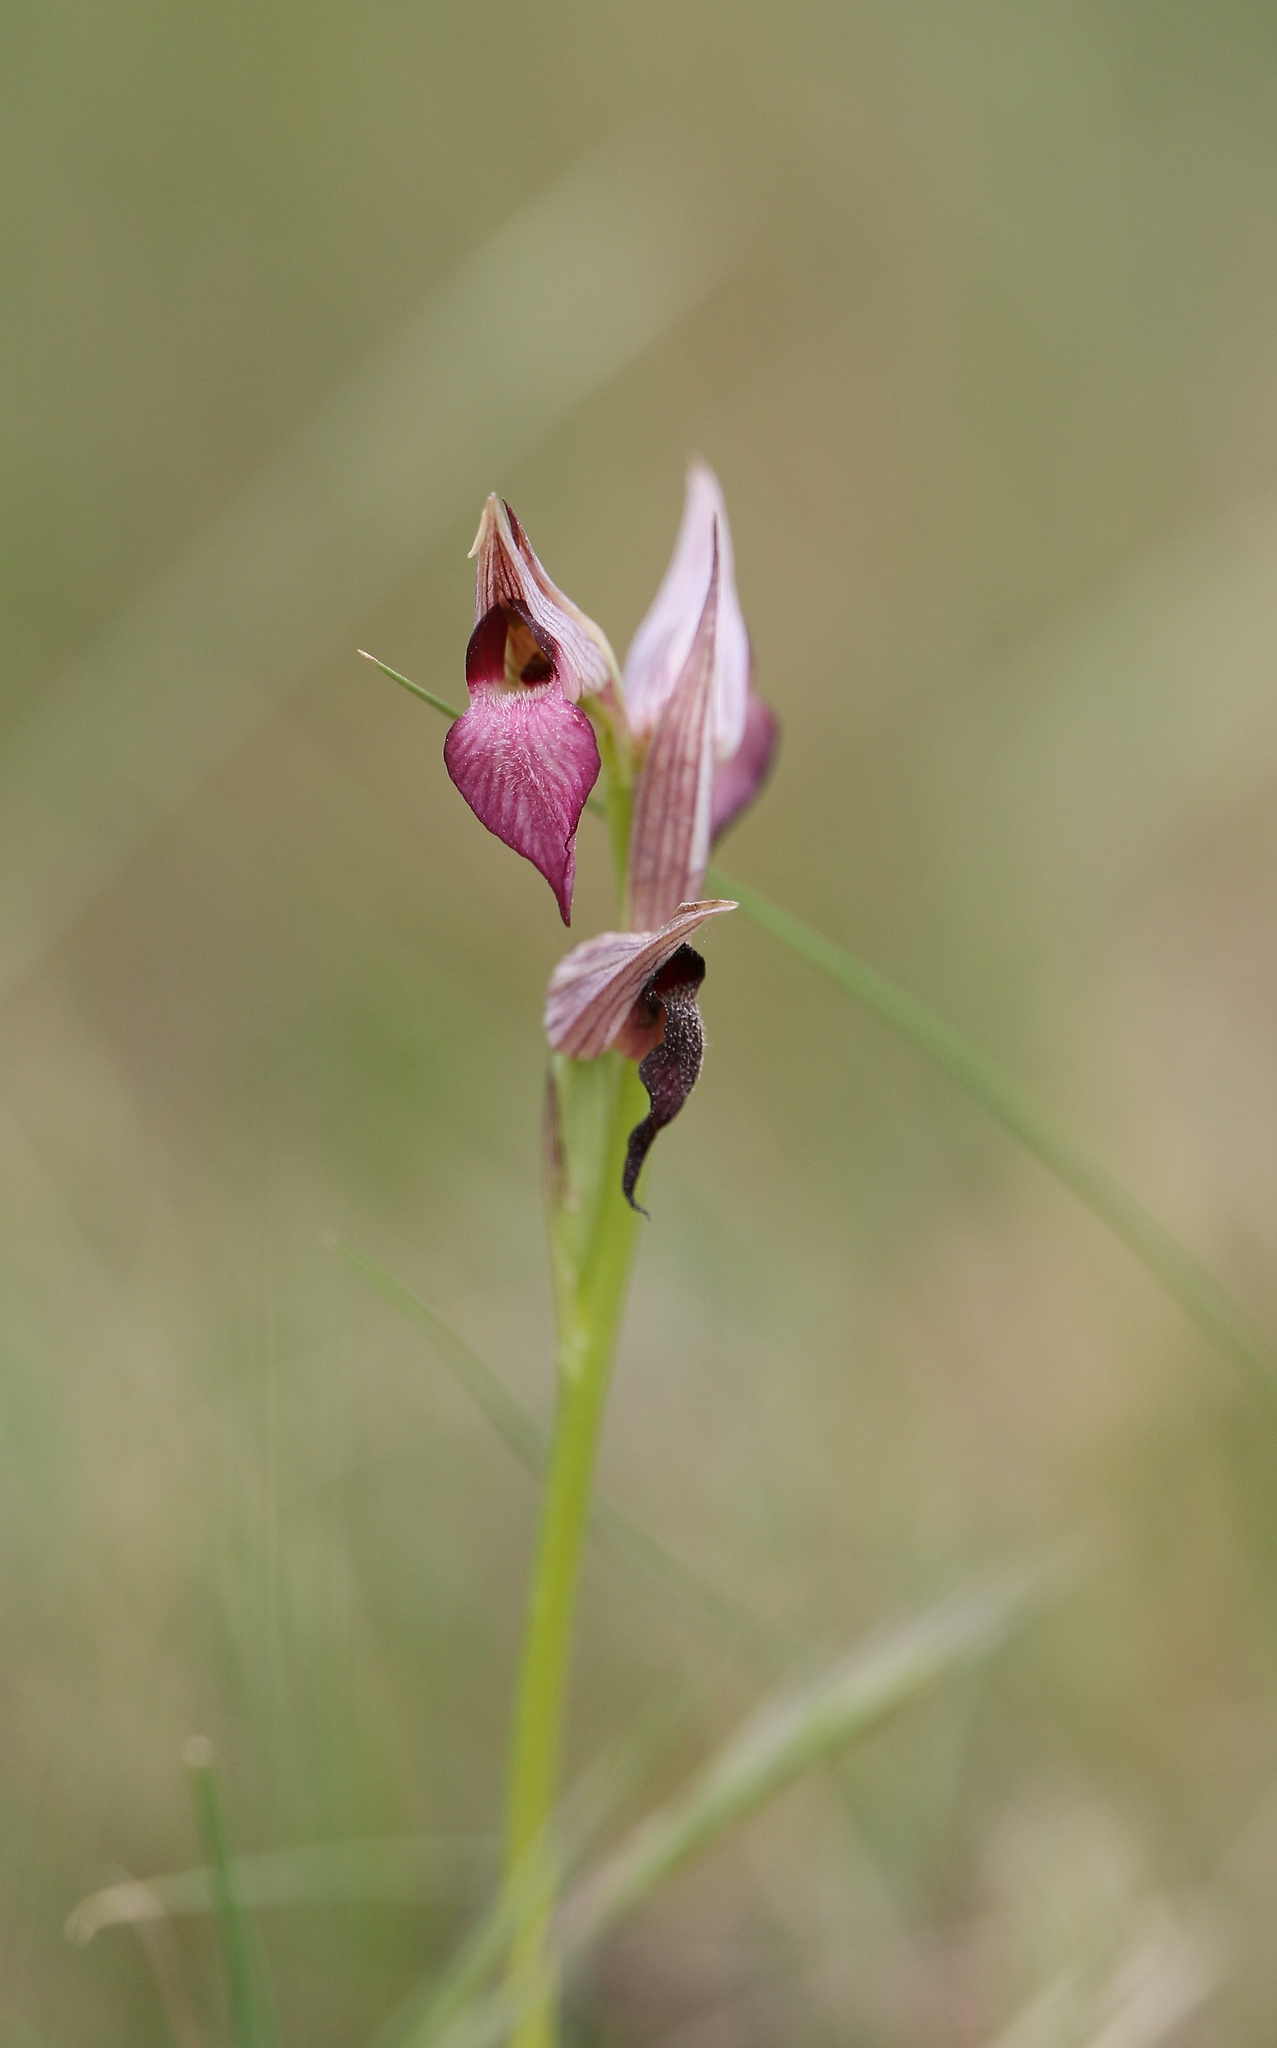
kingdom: Plantae
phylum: Tracheophyta
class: Liliopsida
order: Asparagales
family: Orchidaceae
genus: Serapias
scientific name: Serapias lingua
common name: Tongue-orchid
